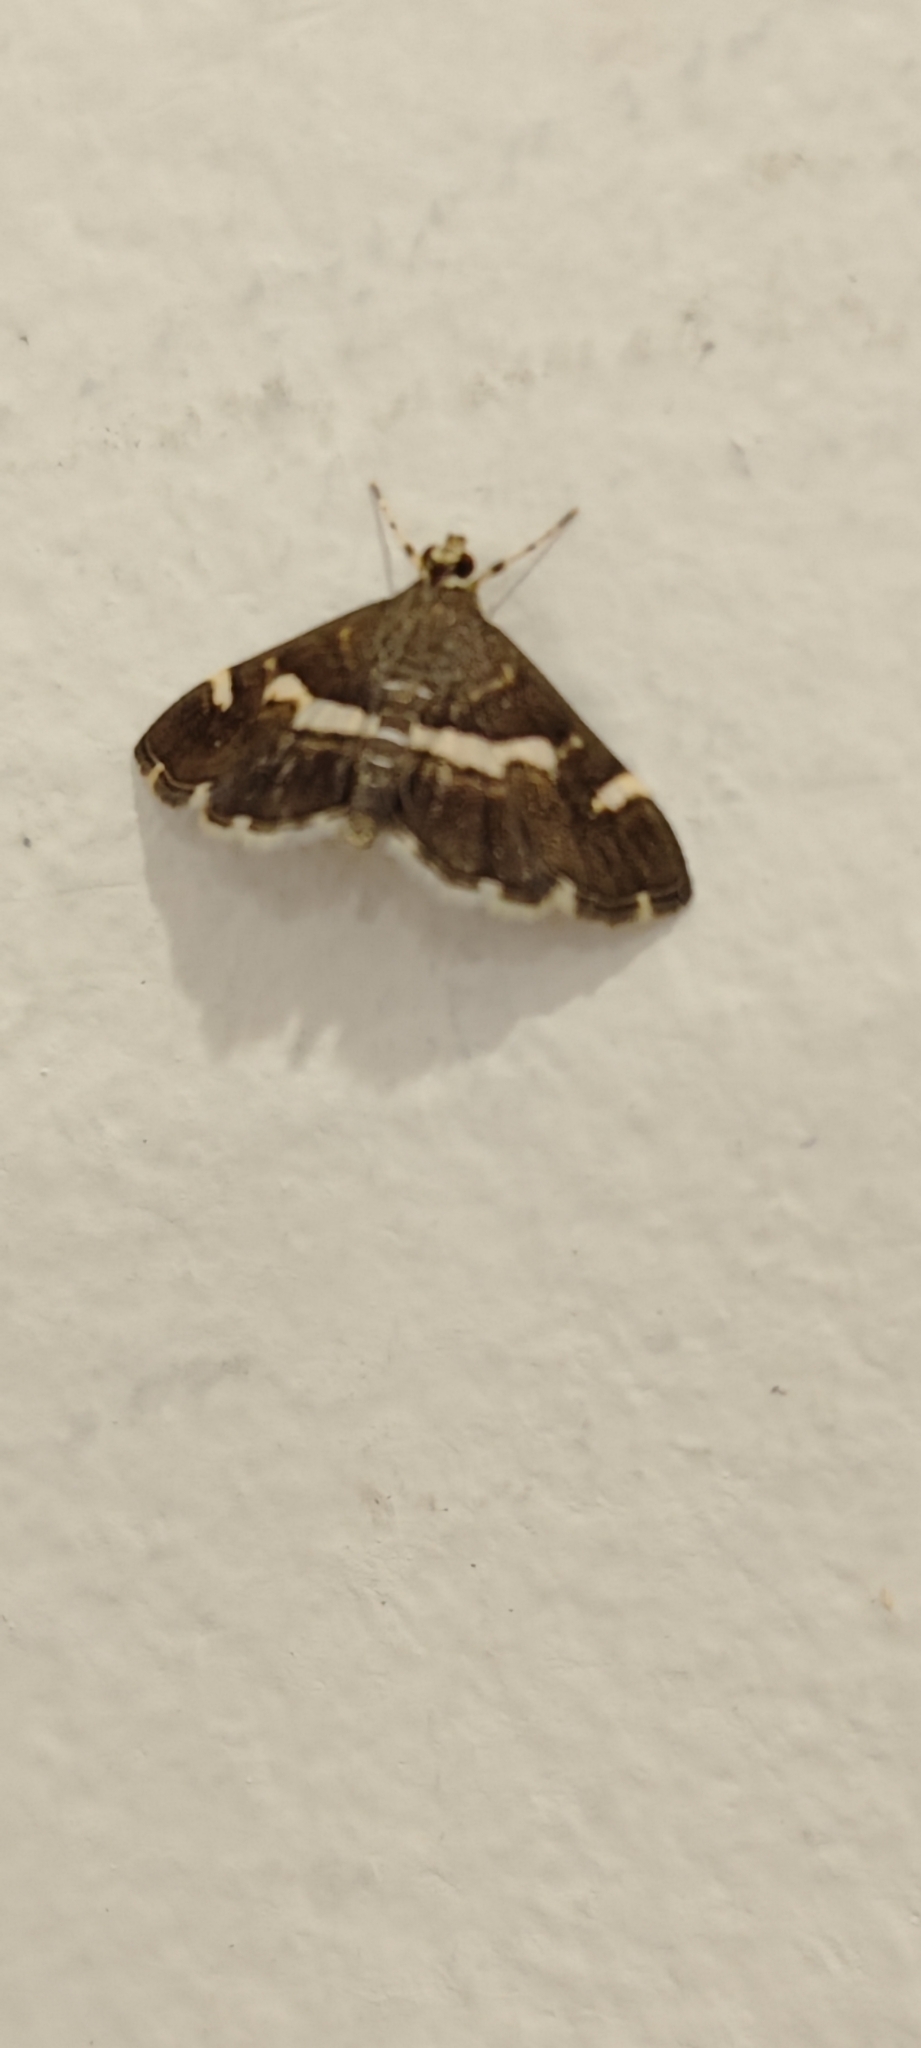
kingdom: Animalia
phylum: Arthropoda
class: Insecta
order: Lepidoptera
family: Crambidae
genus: Spoladea
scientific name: Spoladea recurvalis
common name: Beet webworm moth
